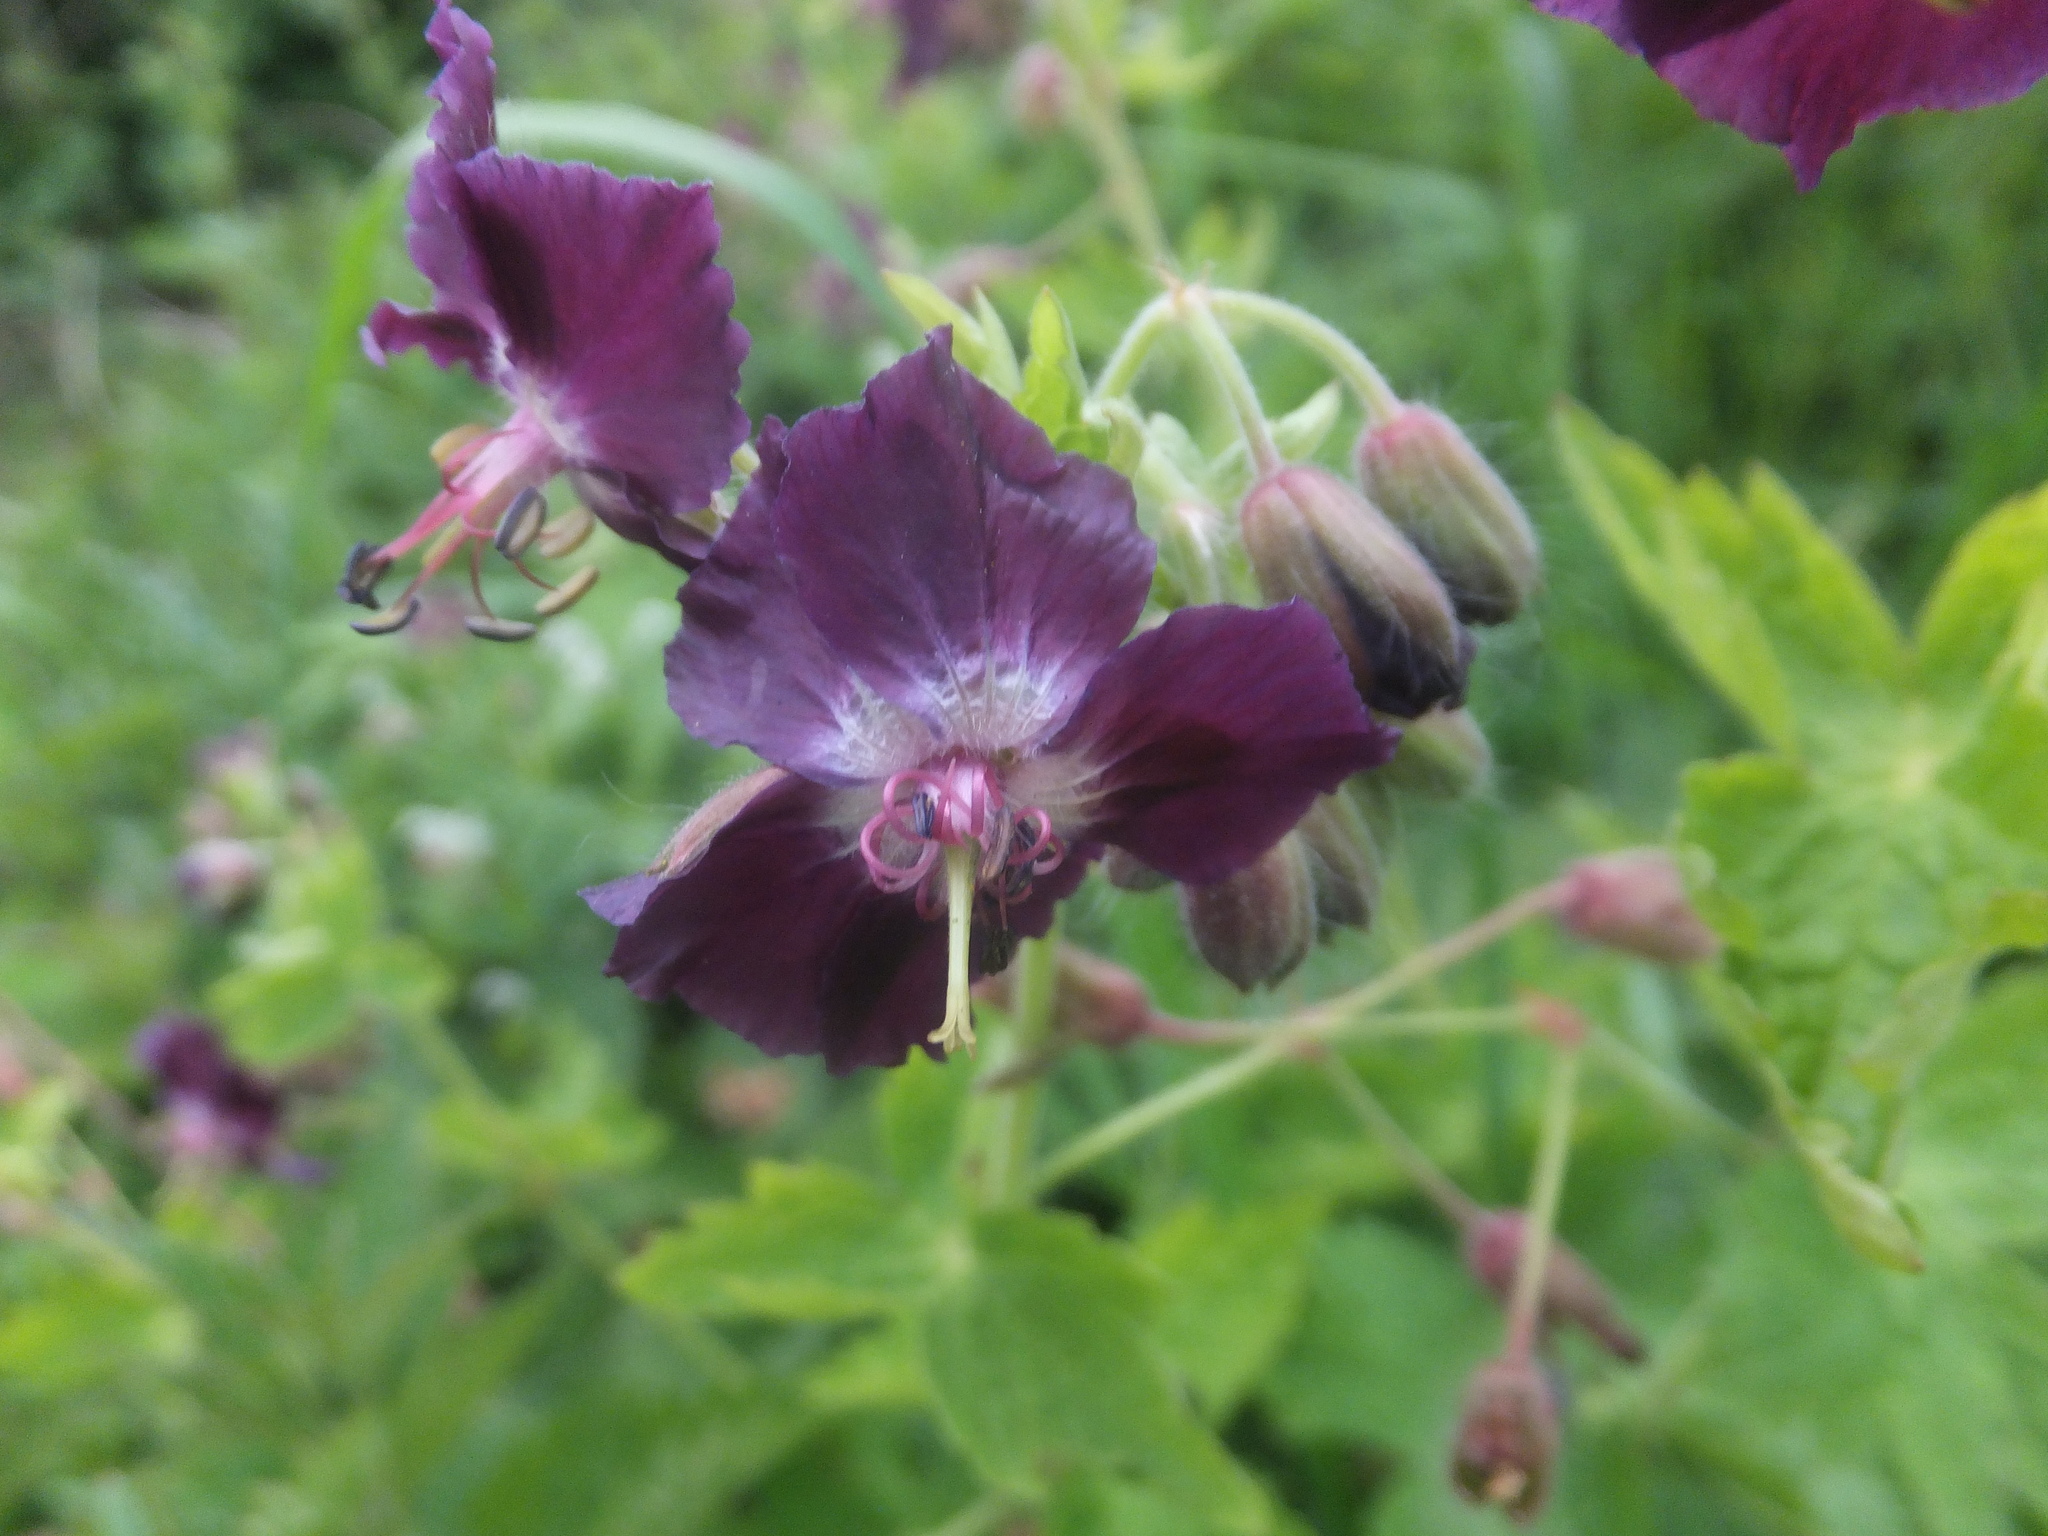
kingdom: Plantae
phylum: Tracheophyta
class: Magnoliopsida
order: Geraniales
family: Geraniaceae
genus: Geranium
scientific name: Geranium phaeum
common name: Dusky crane's-bill
